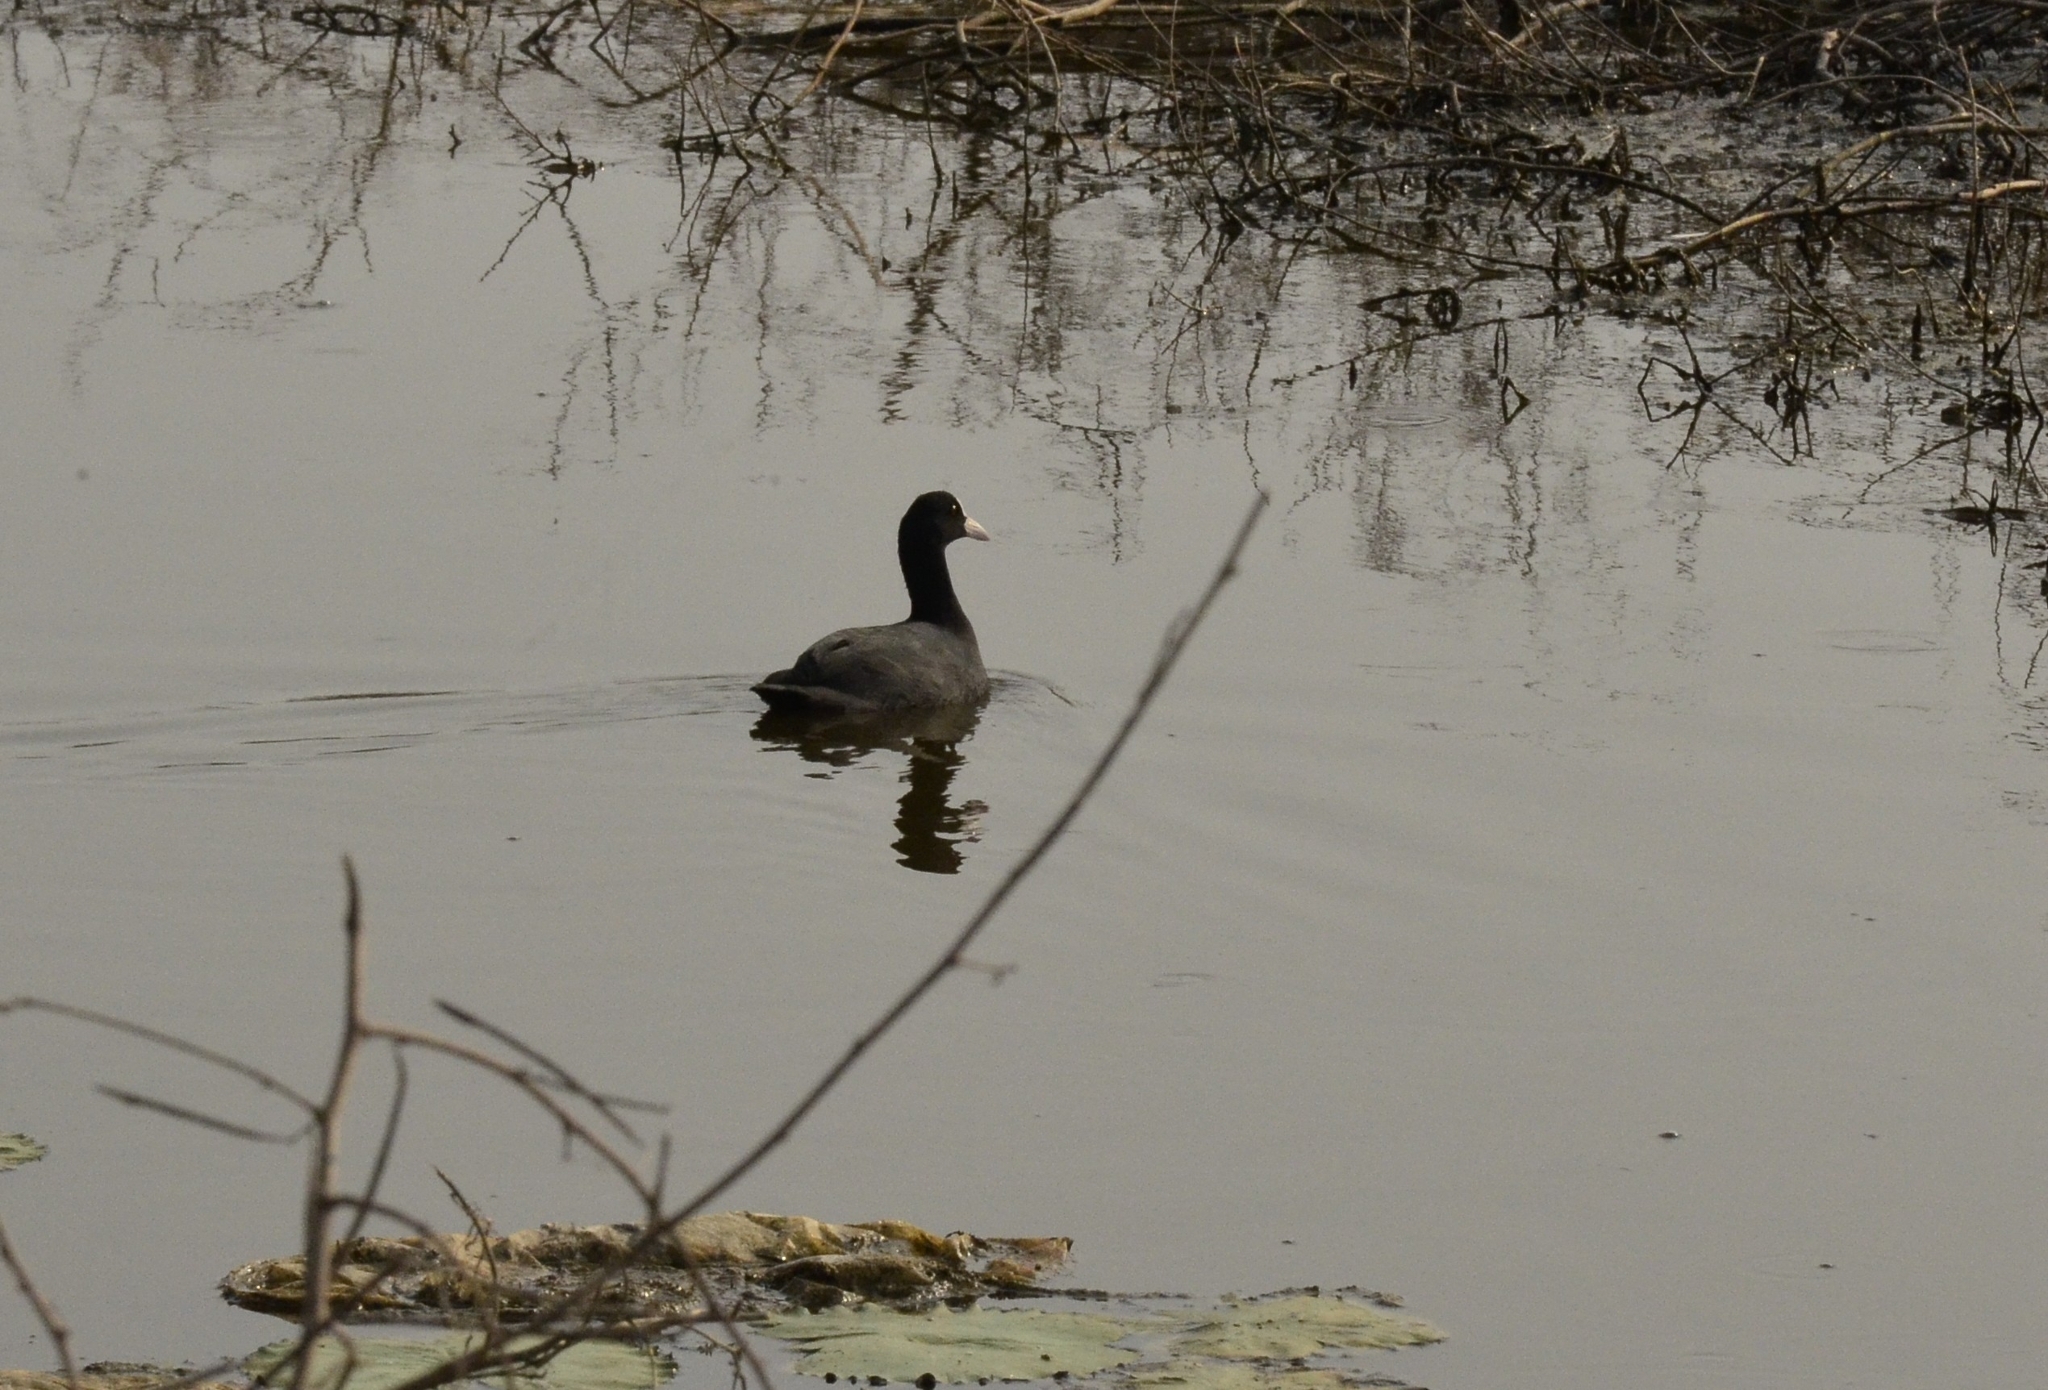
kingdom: Animalia
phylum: Chordata
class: Aves
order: Gruiformes
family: Rallidae
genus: Fulica
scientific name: Fulica atra
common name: Eurasian coot
